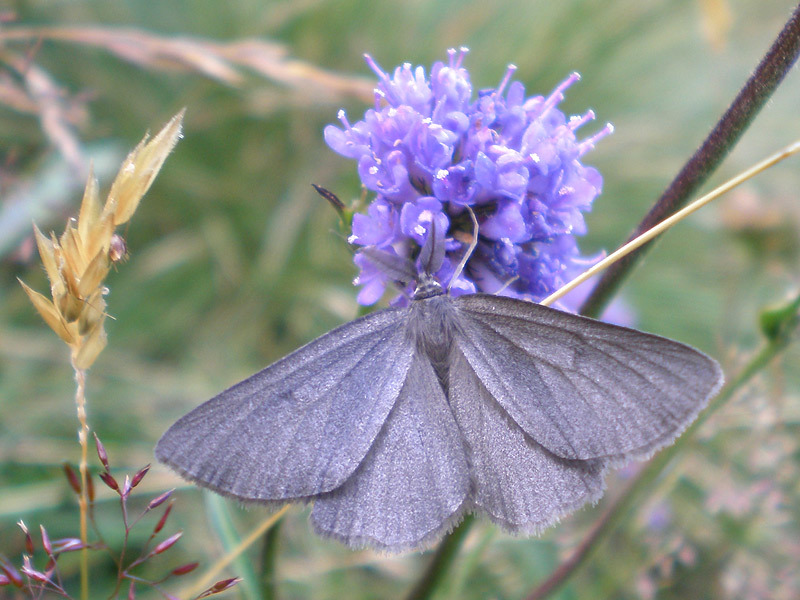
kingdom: Animalia
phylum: Arthropoda
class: Insecta
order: Lepidoptera
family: Geometridae
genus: Crocota
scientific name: Crocota peletieraria
